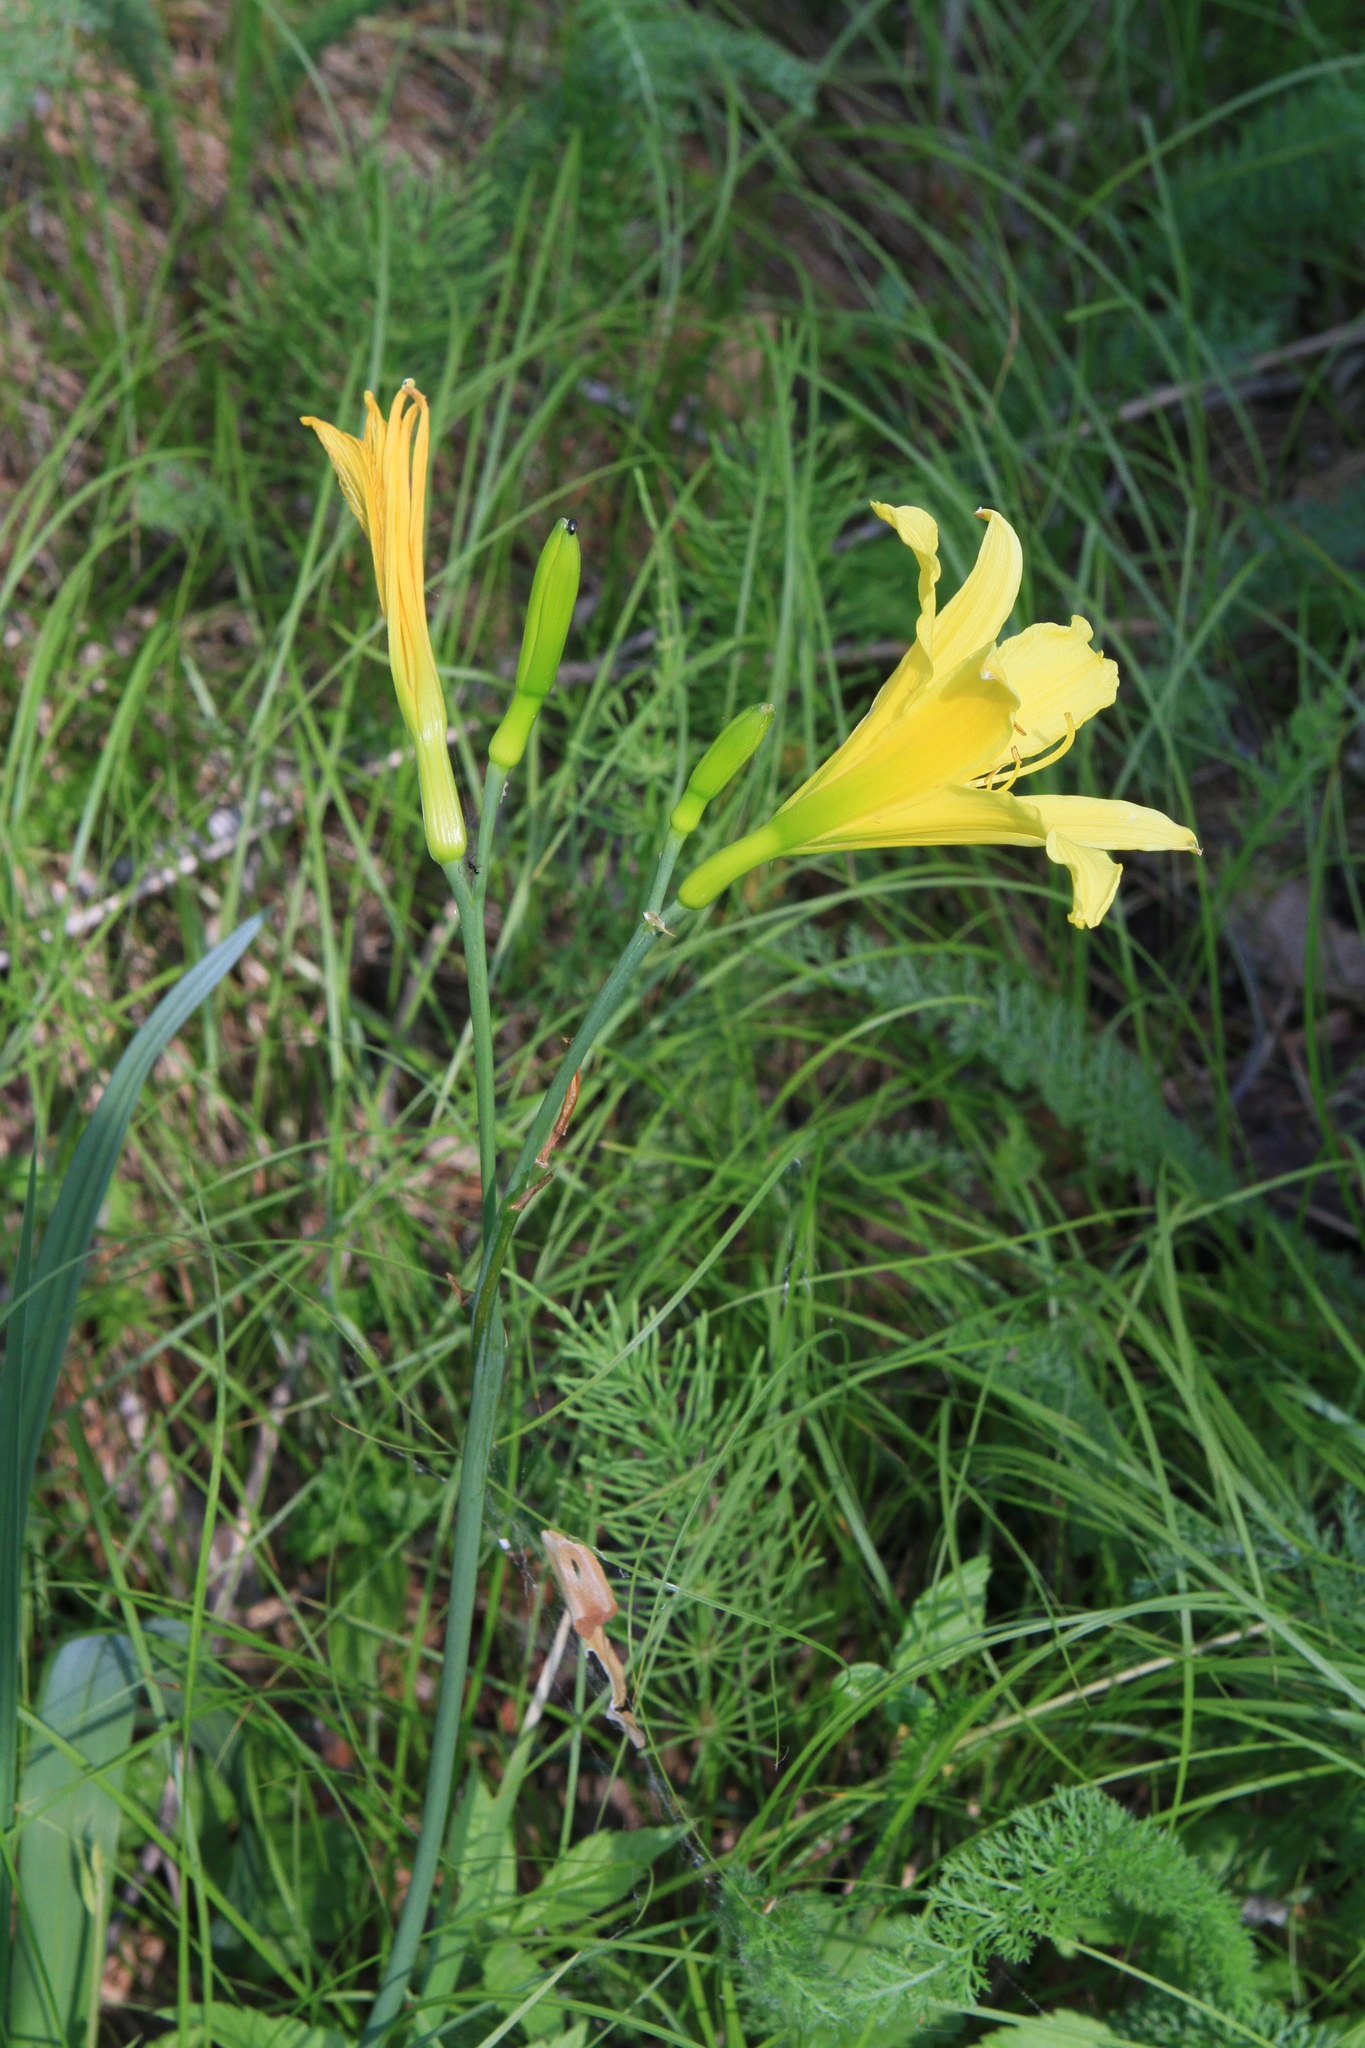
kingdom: Plantae
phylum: Tracheophyta
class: Liliopsida
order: Asparagales
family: Asphodelaceae
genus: Hemerocallis
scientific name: Hemerocallis minor
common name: Small daylily
